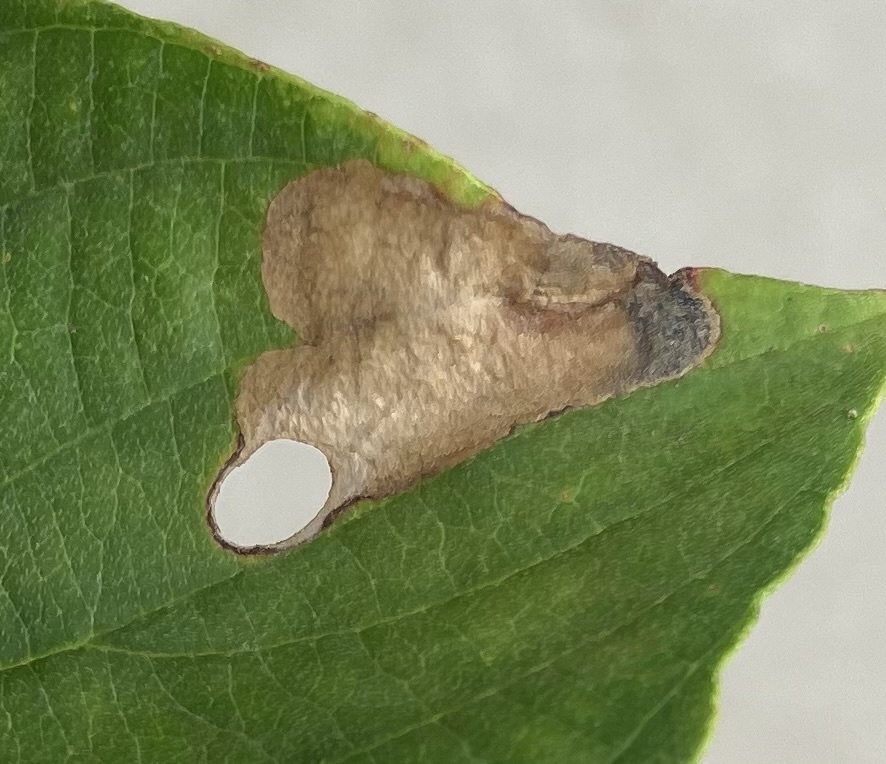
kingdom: Animalia
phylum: Arthropoda
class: Insecta
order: Lepidoptera
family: Heliozelidae
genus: Antispila
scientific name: Antispila freemani
